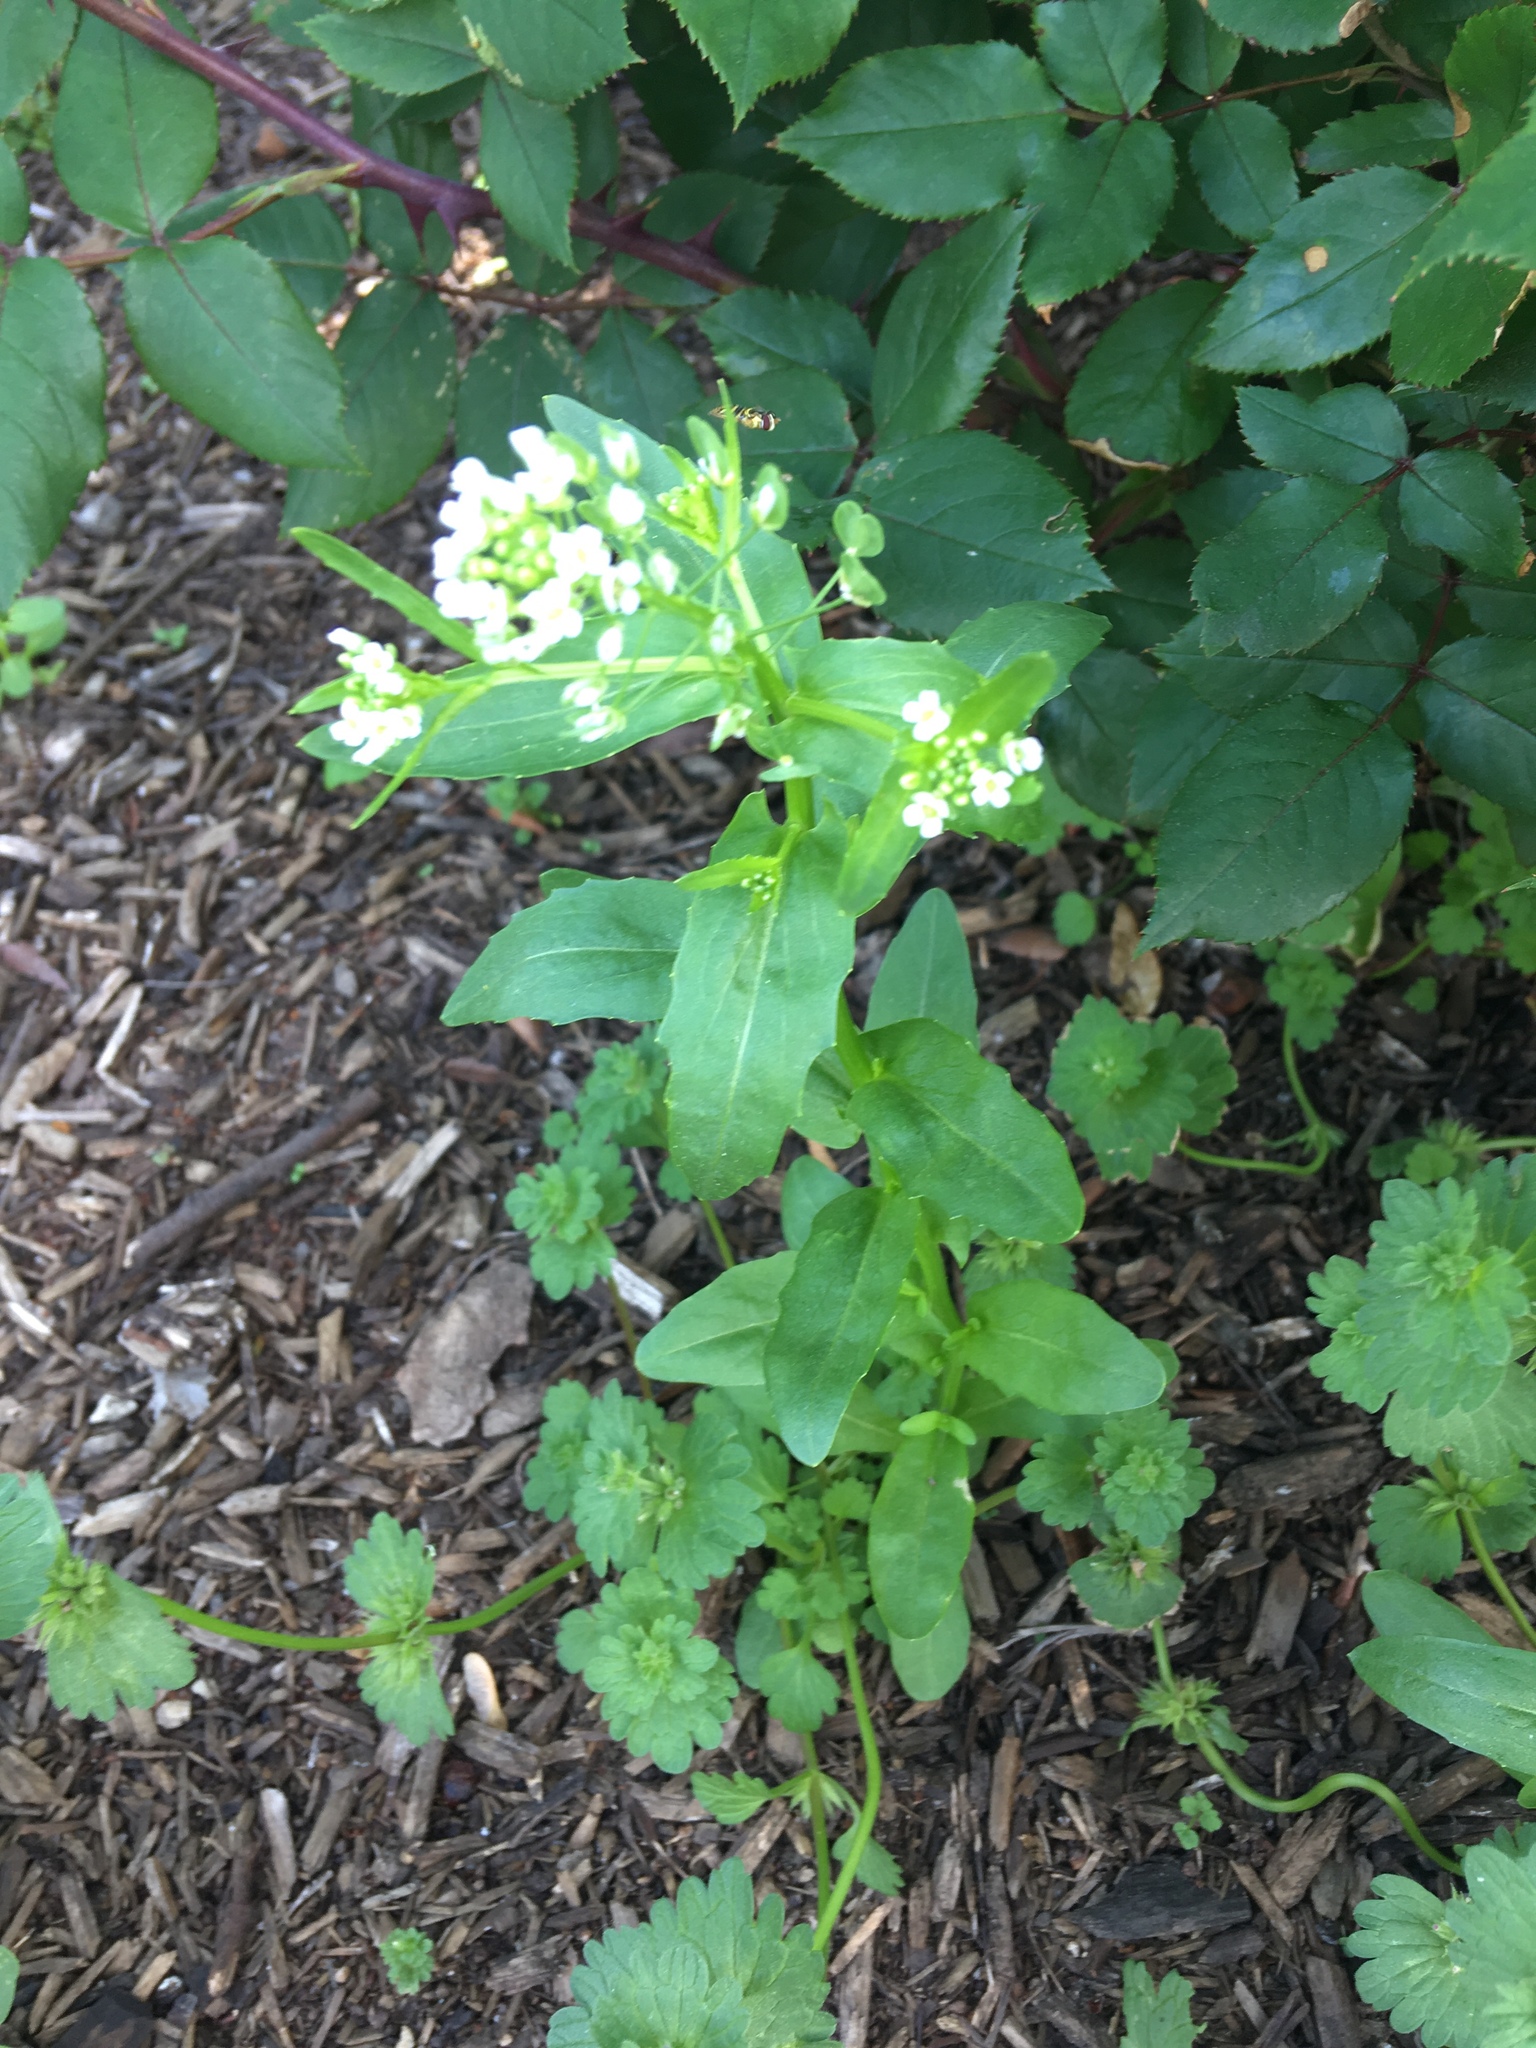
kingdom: Plantae
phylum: Tracheophyta
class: Magnoliopsida
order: Brassicales
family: Brassicaceae
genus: Thlaspi
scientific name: Thlaspi arvense
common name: Field pennycress
